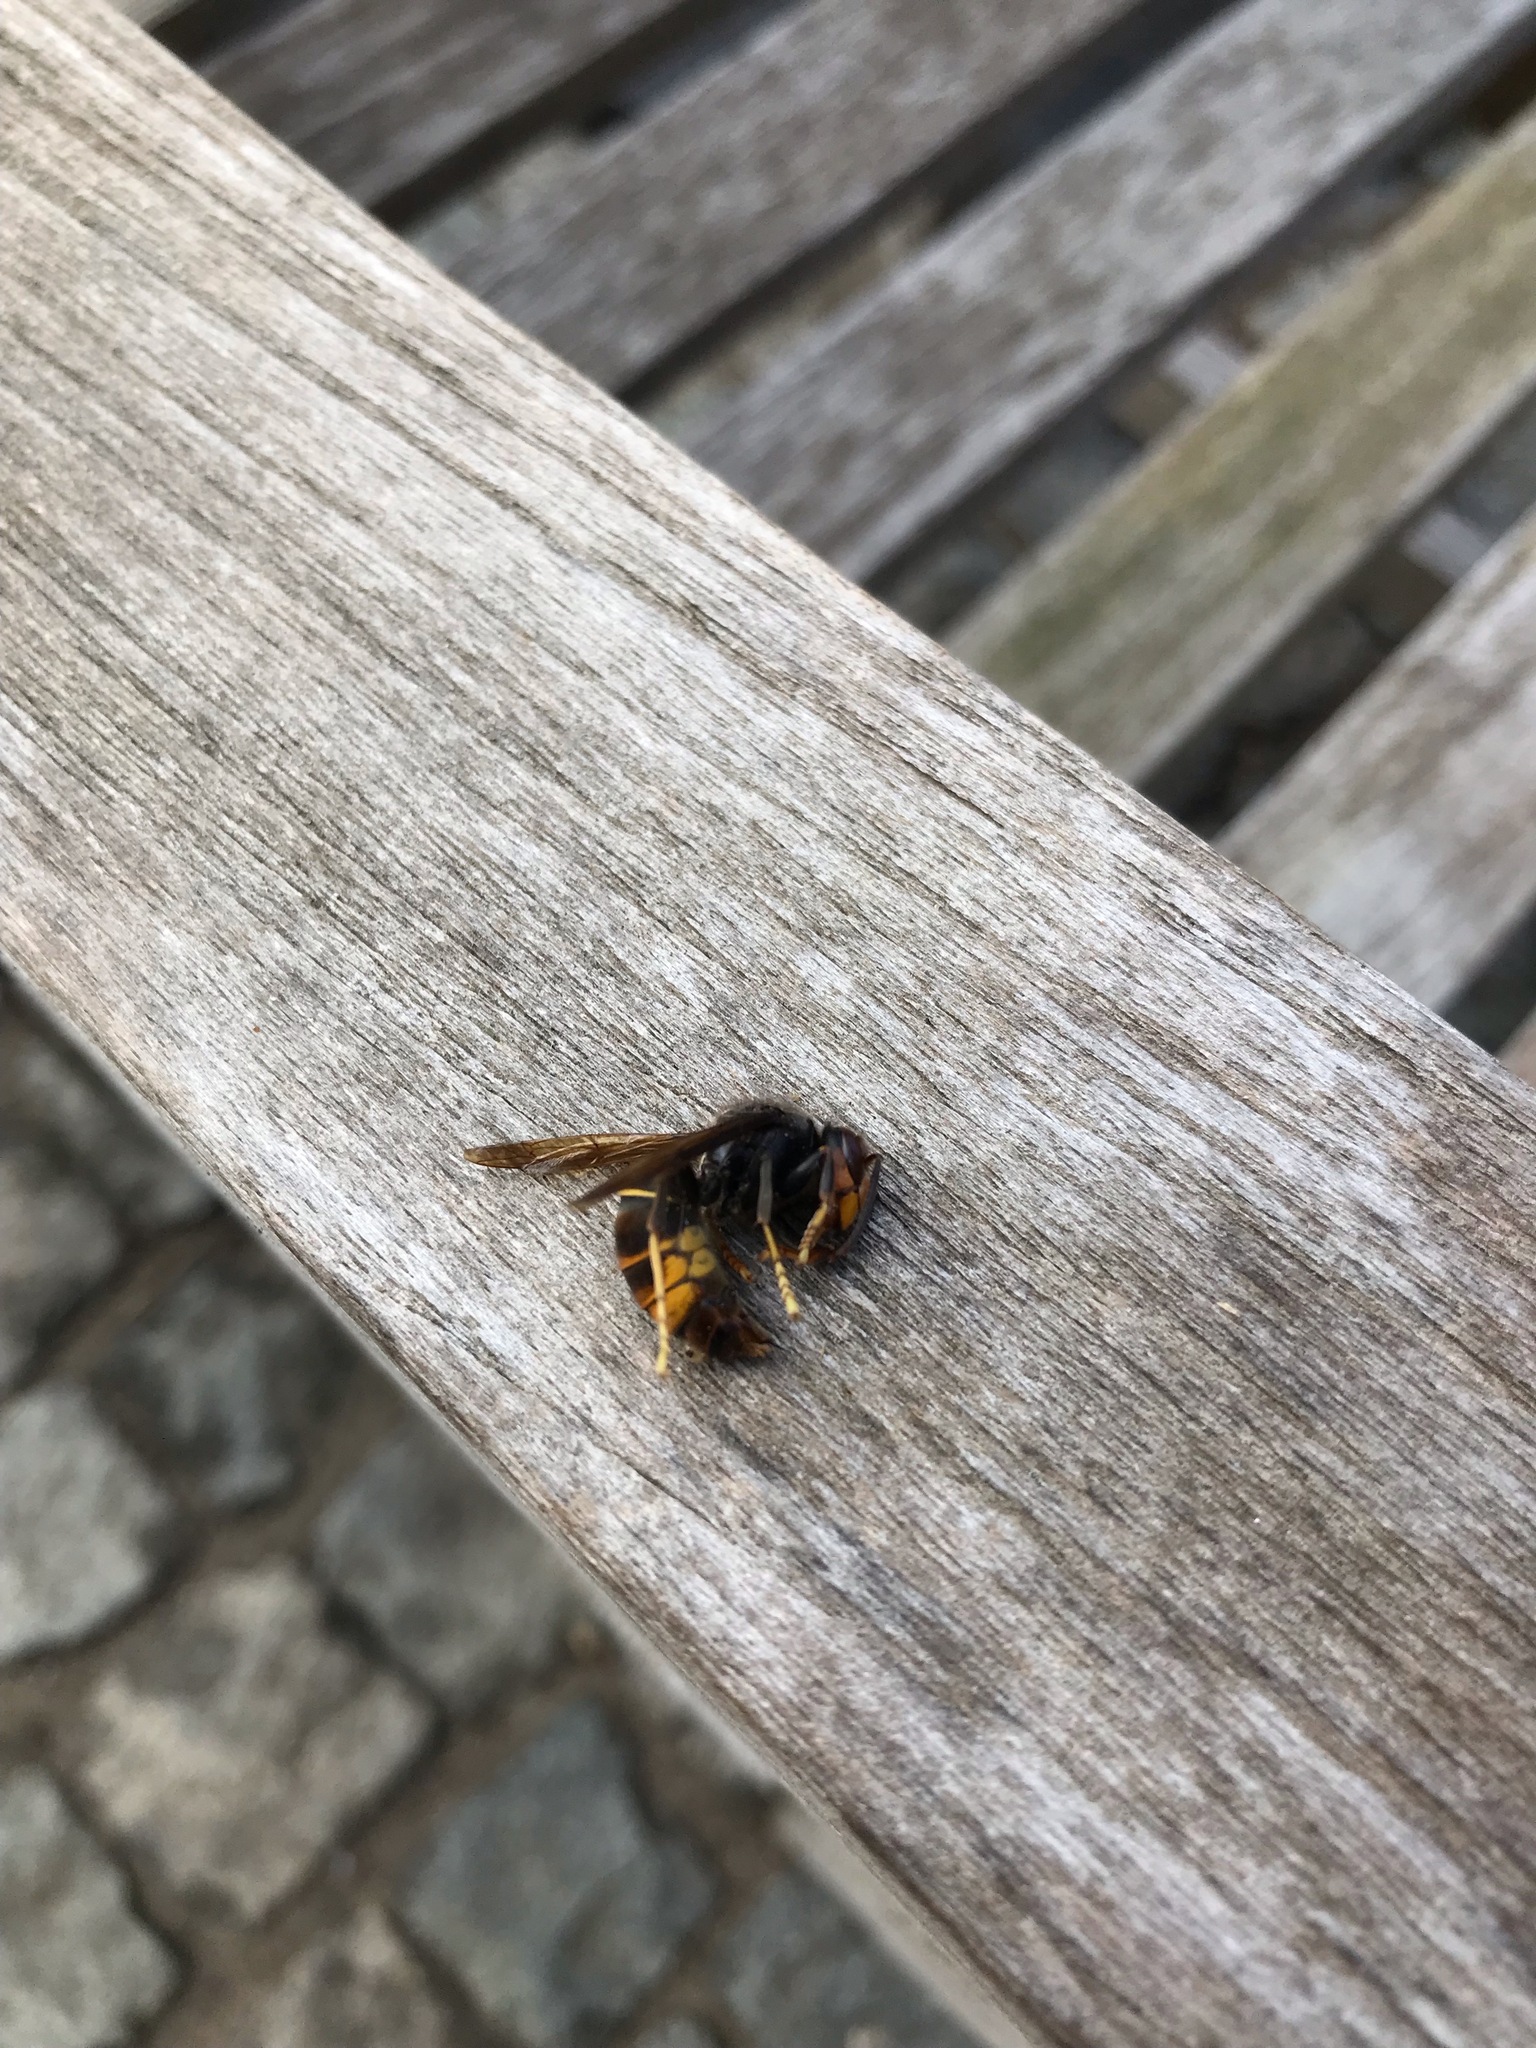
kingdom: Animalia
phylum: Arthropoda
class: Insecta
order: Hymenoptera
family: Vespidae
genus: Vespa
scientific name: Vespa velutina
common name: Asian hornet
